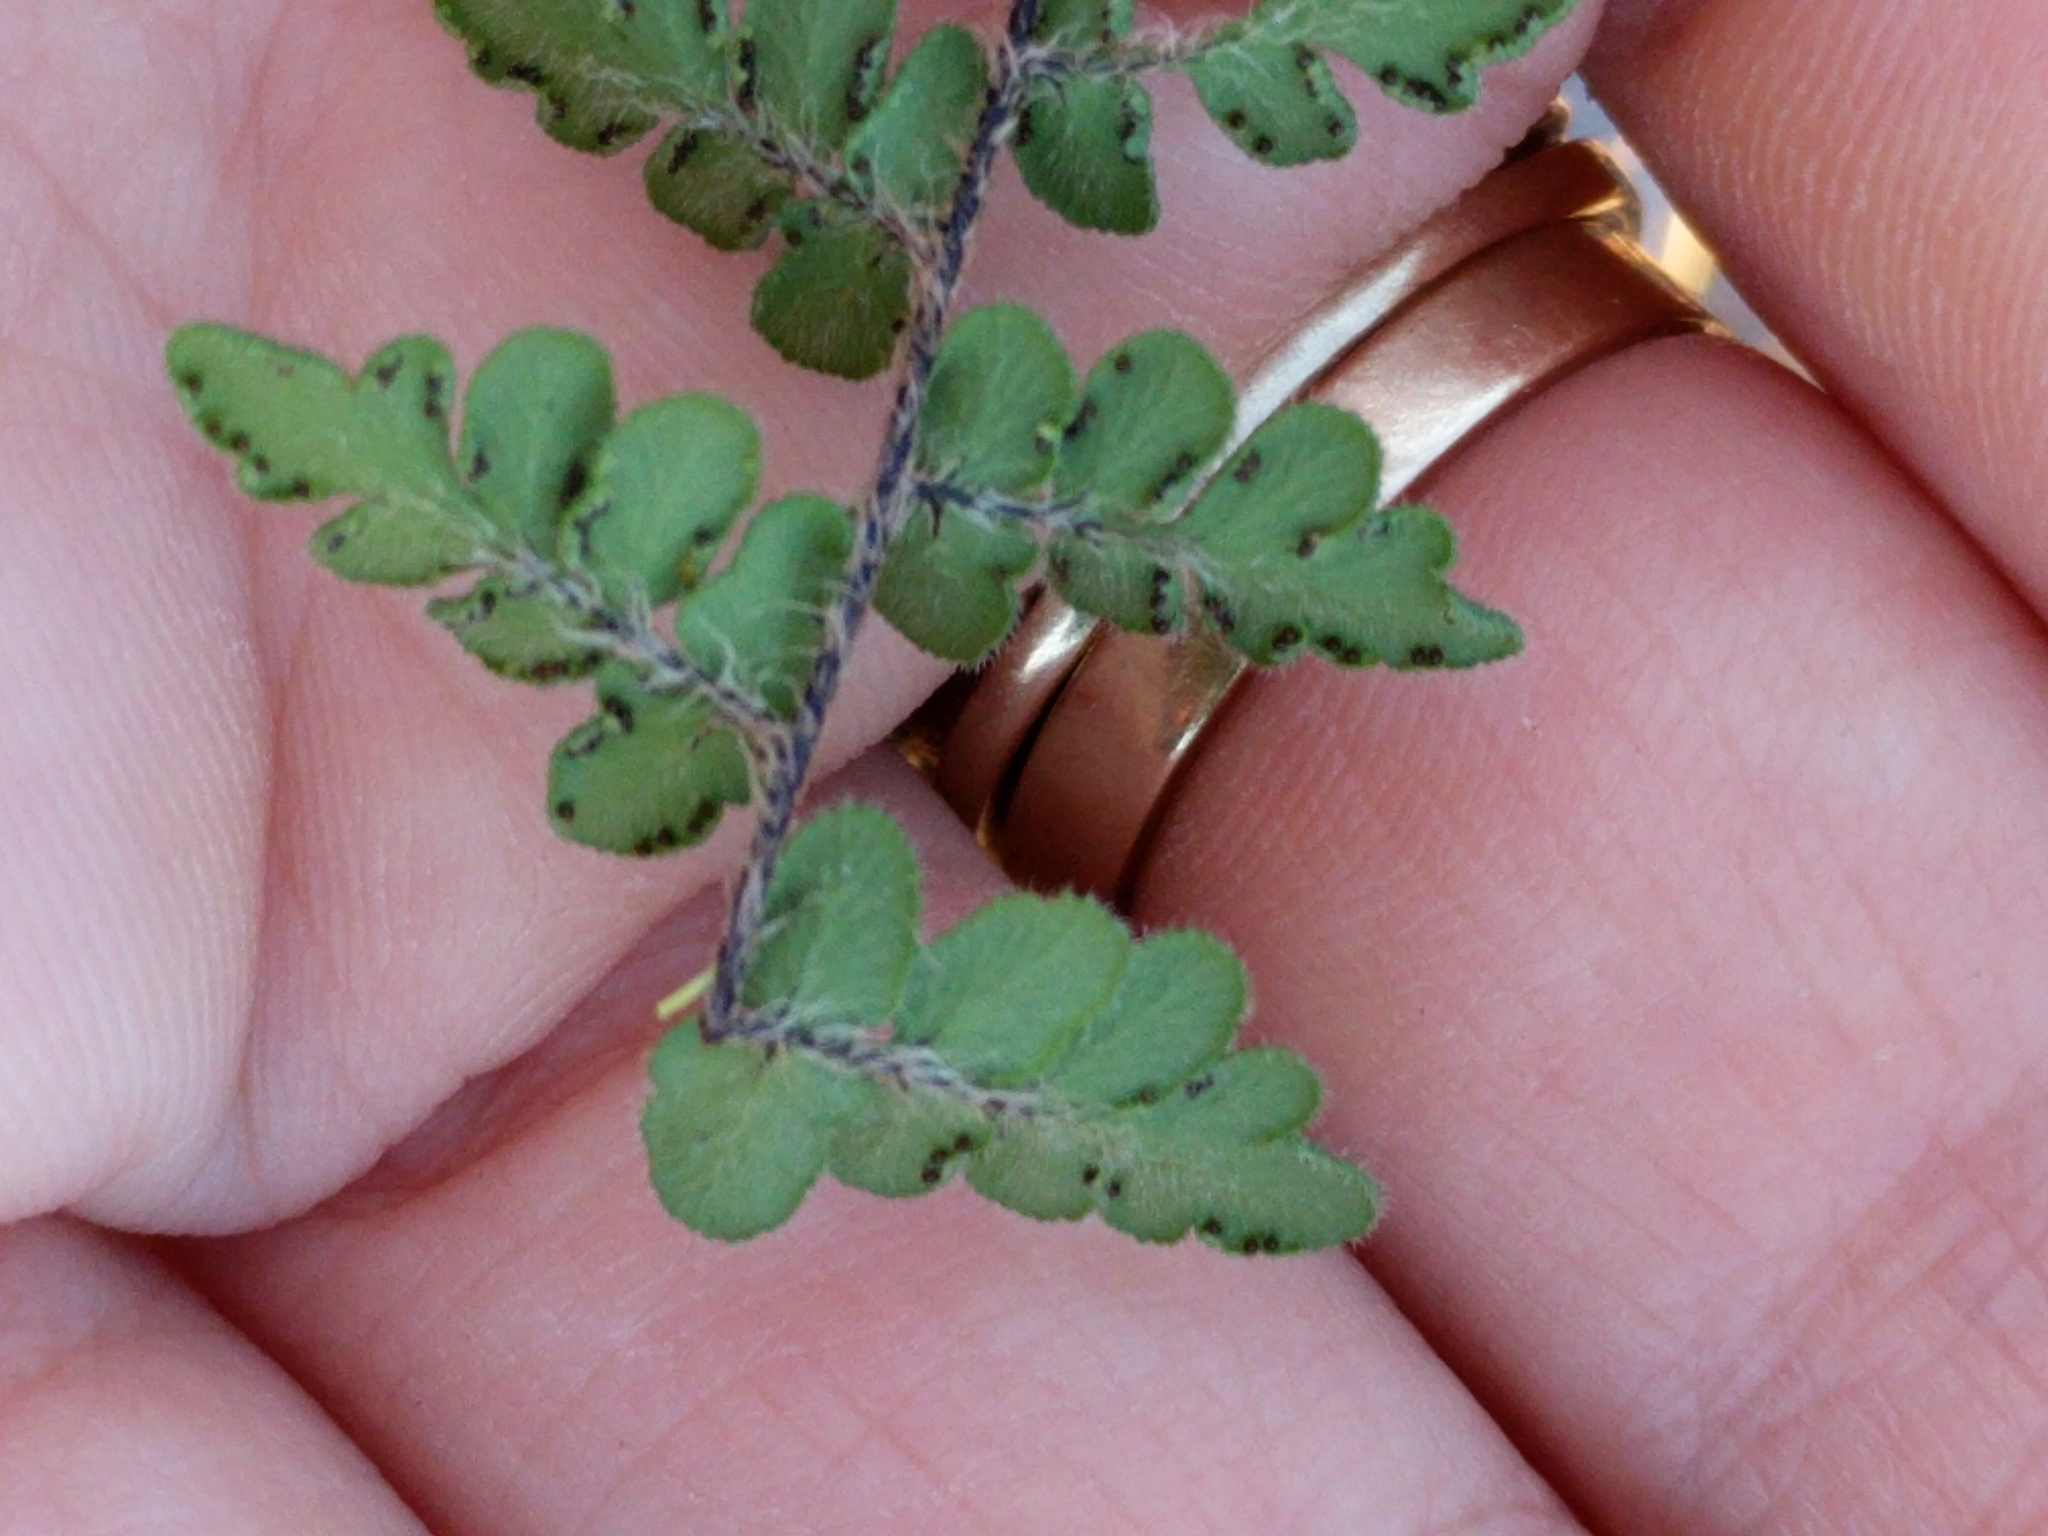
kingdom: Plantae
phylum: Tracheophyta
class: Polypodiopsida
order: Polypodiales
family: Pteridaceae
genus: Myriopteris
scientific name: Myriopteris scabra
